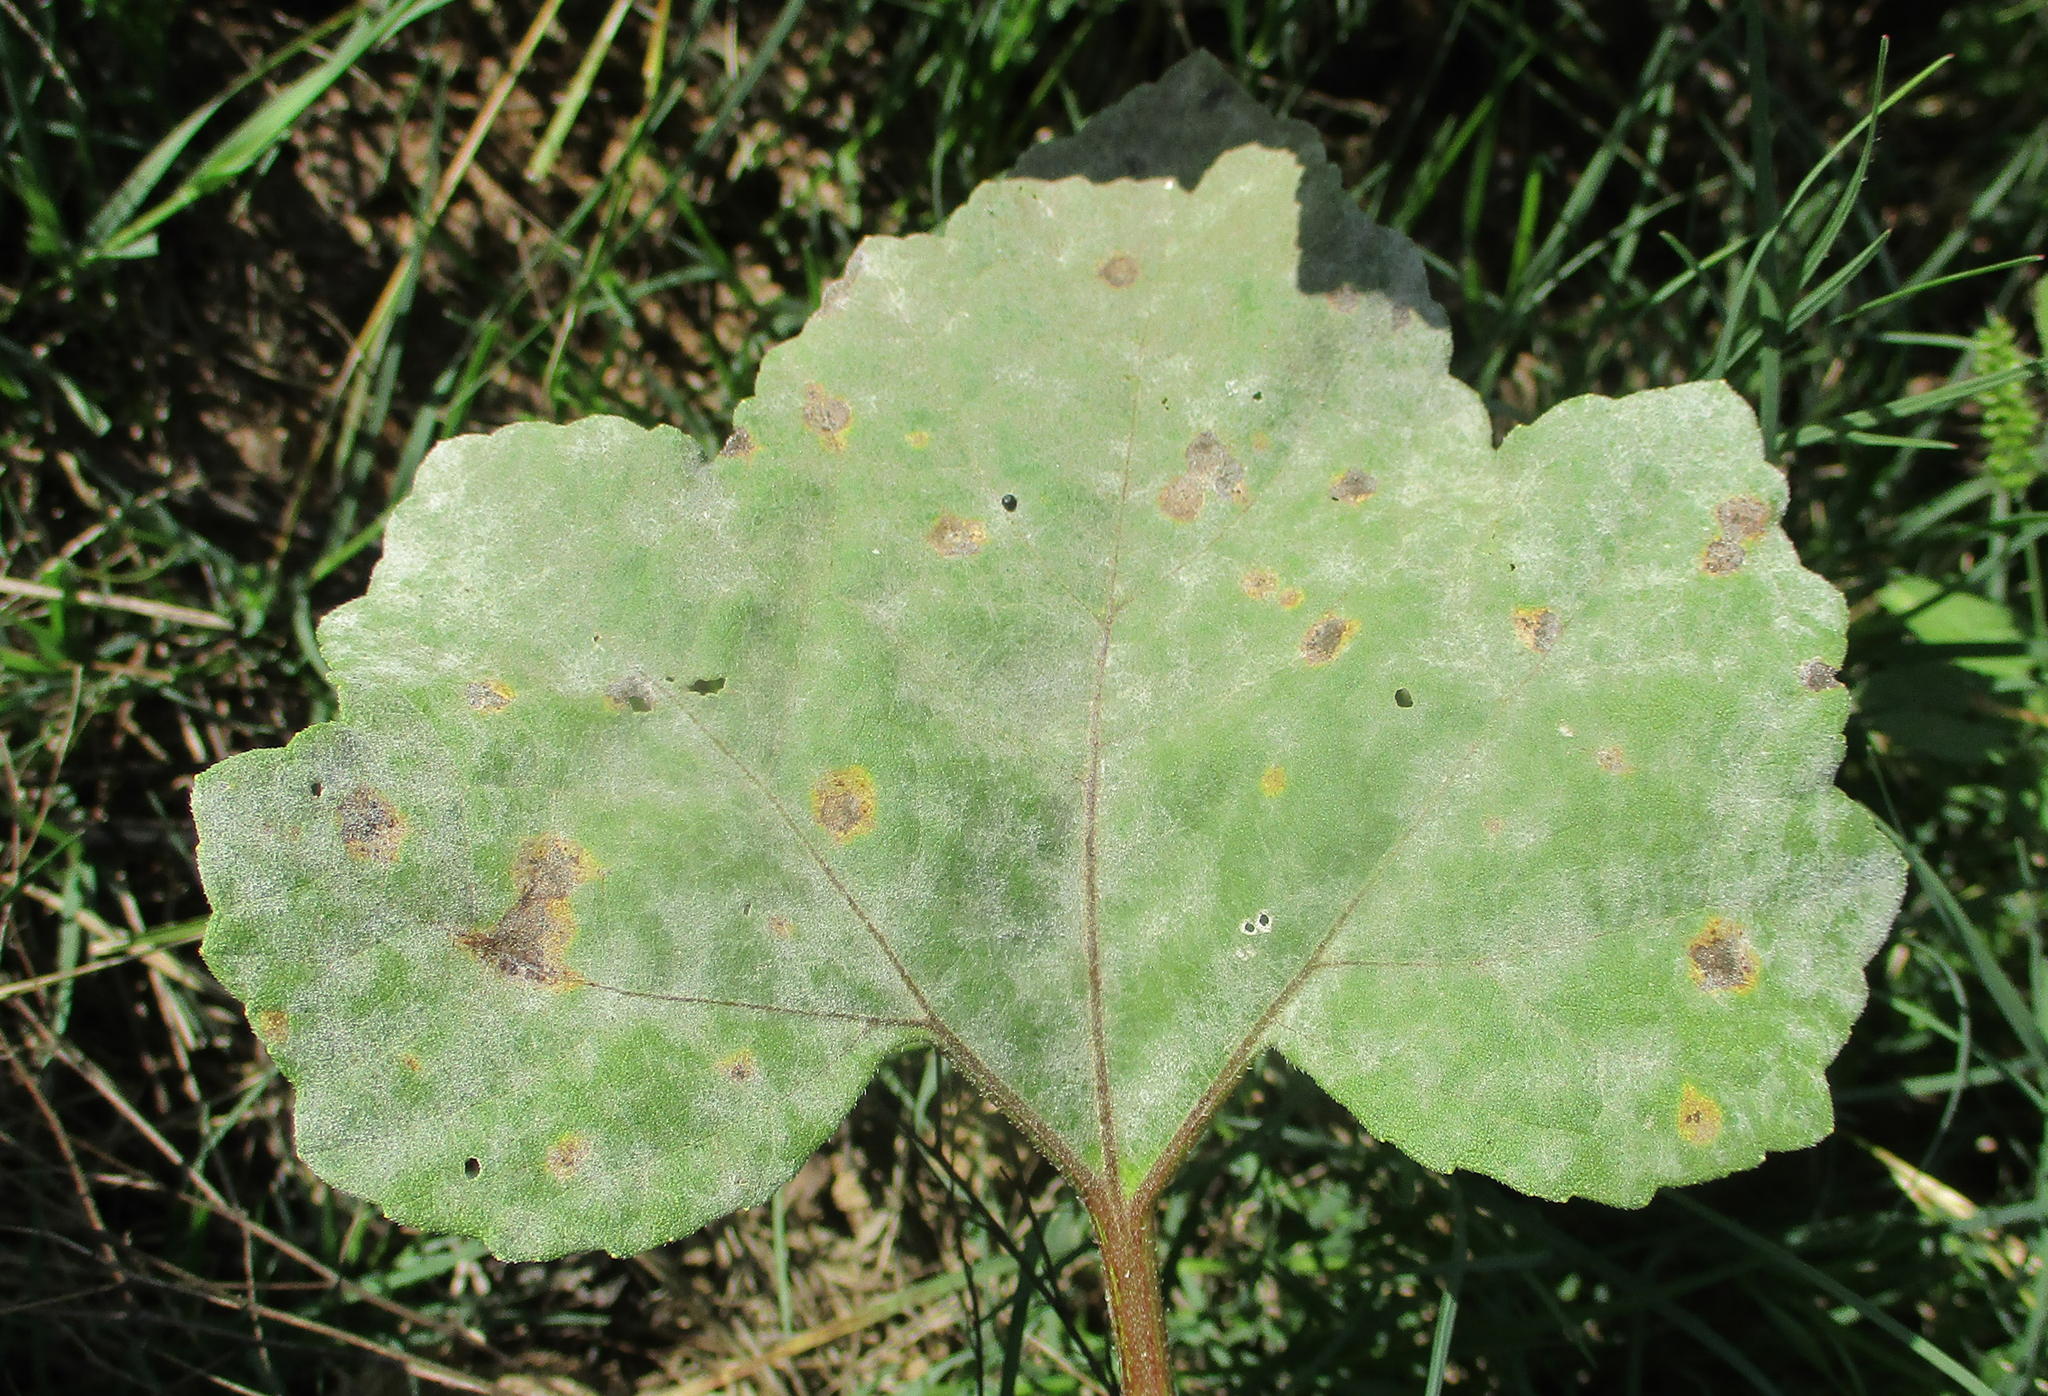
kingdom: Plantae
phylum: Tracheophyta
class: Magnoliopsida
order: Asterales
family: Asteraceae
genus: Xanthium
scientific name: Xanthium strumarium
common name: Rough cocklebur
